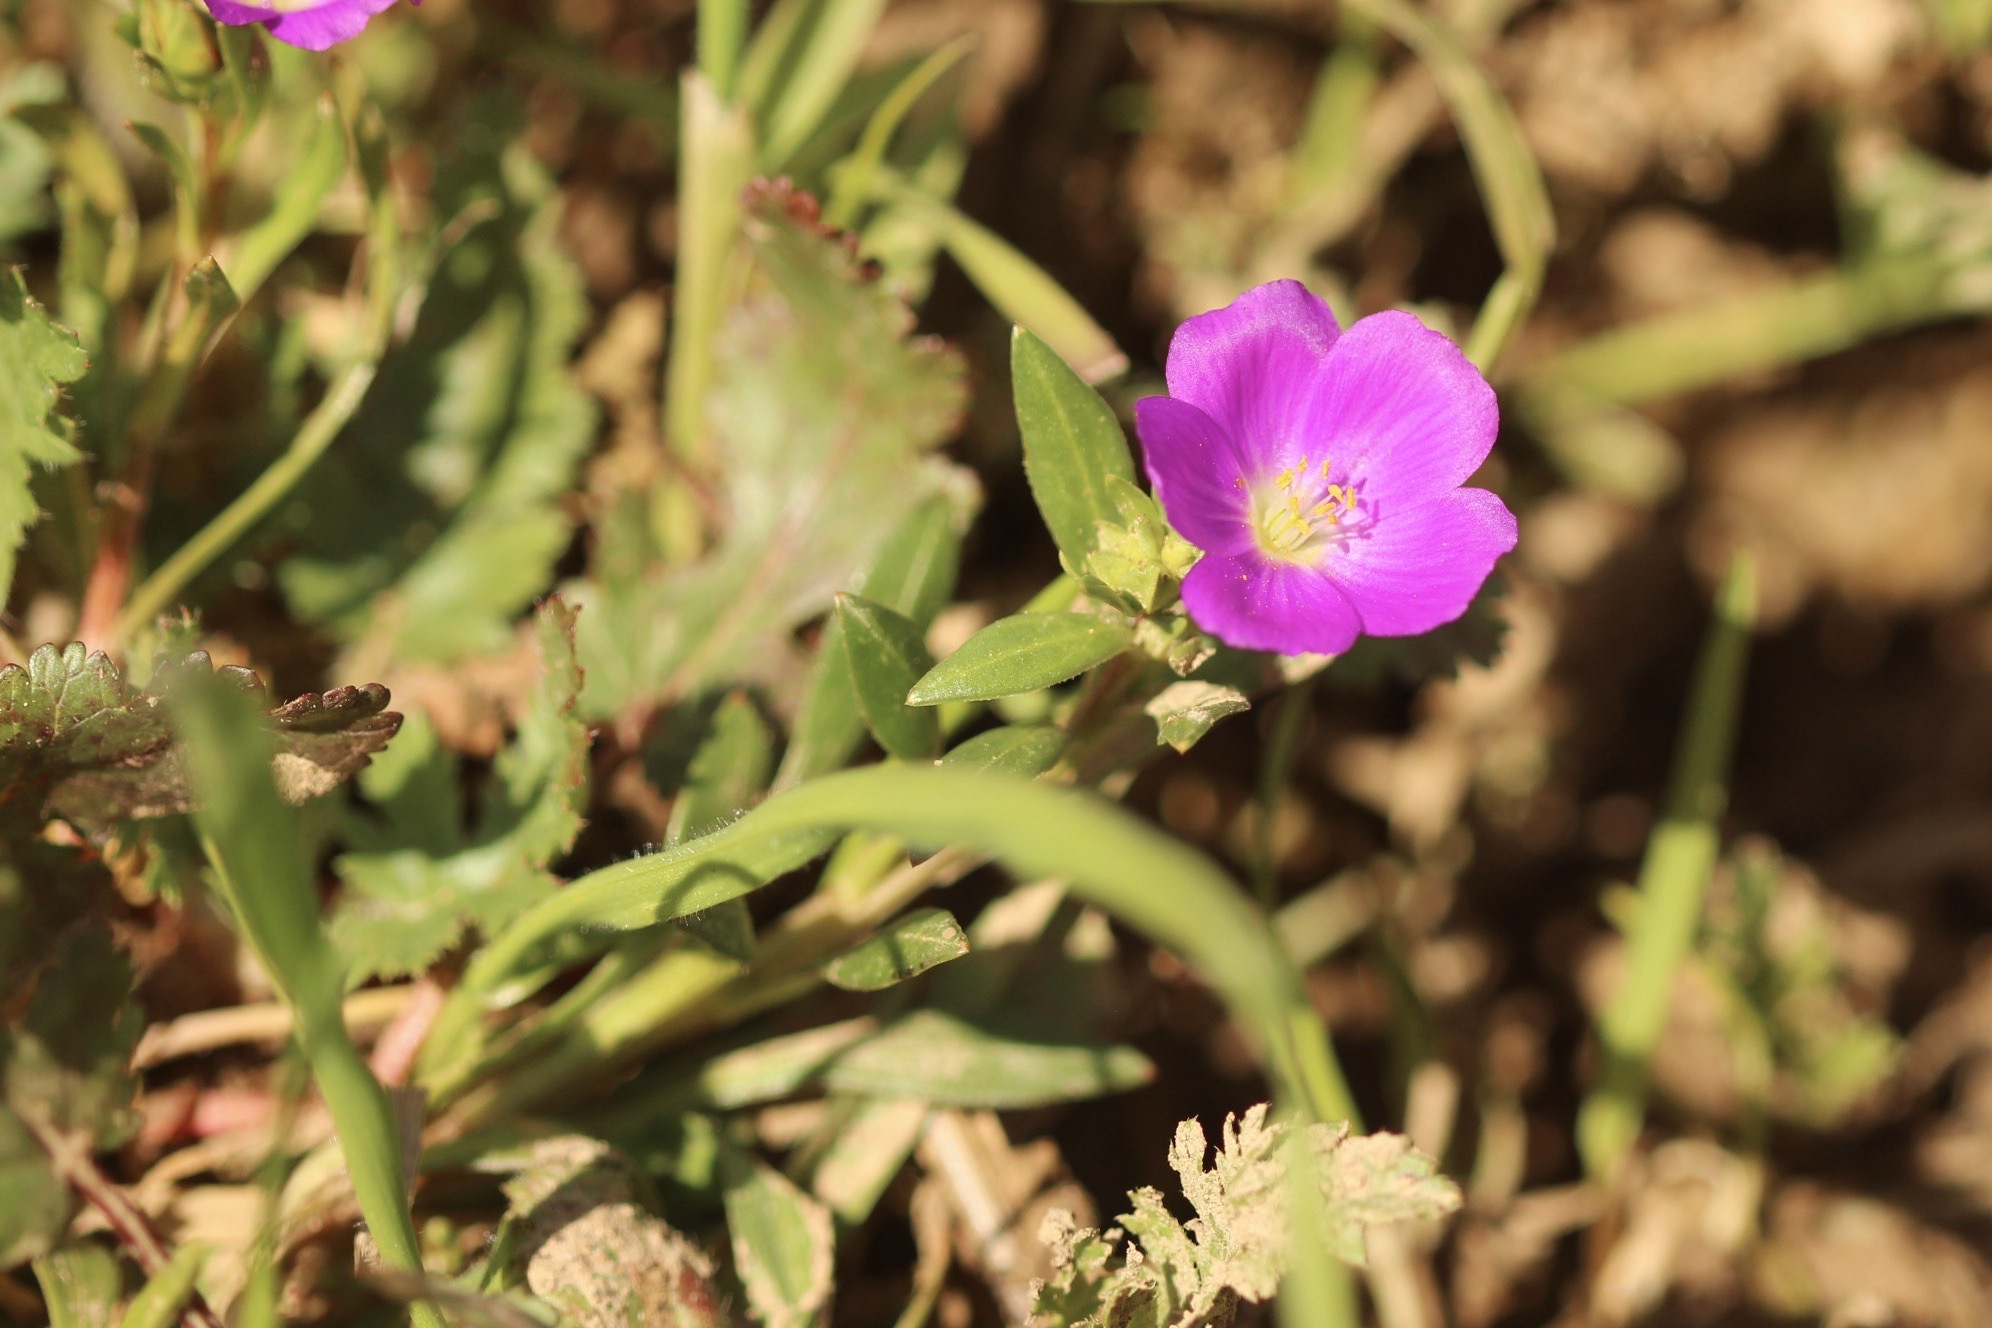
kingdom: Plantae
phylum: Tracheophyta
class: Magnoliopsida
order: Caryophyllales
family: Montiaceae
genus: Calandrinia
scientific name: Calandrinia menziesii
